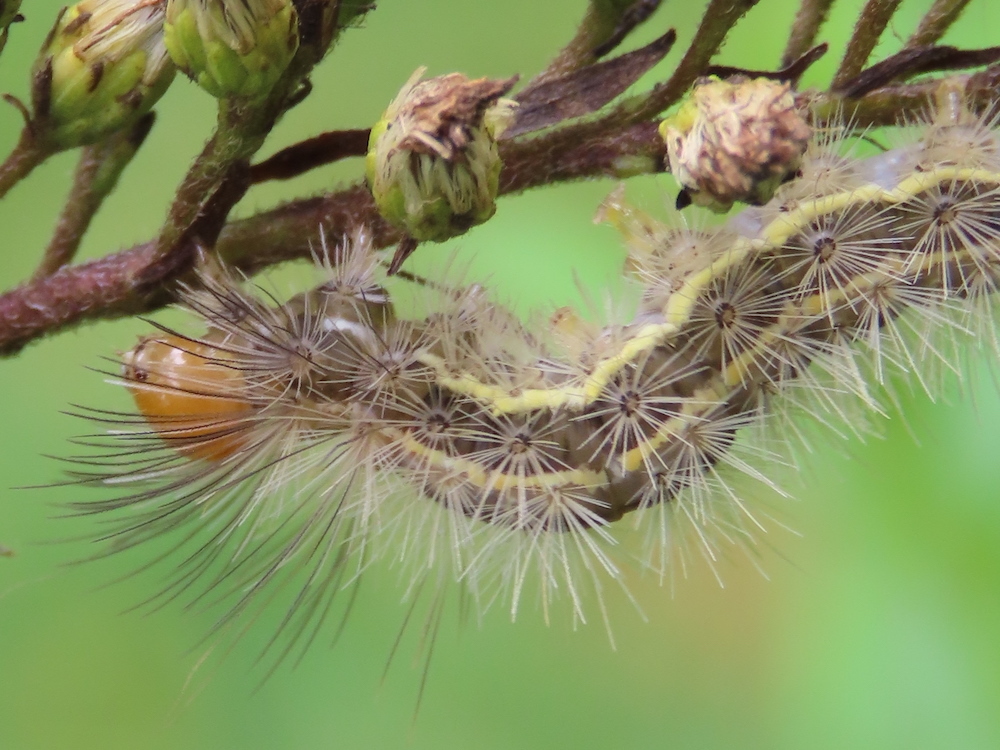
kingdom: Animalia
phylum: Arthropoda
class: Insecta
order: Lepidoptera
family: Erebidae
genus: Cisseps
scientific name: Cisseps fulvicollis
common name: Yellow-collared scape moth
